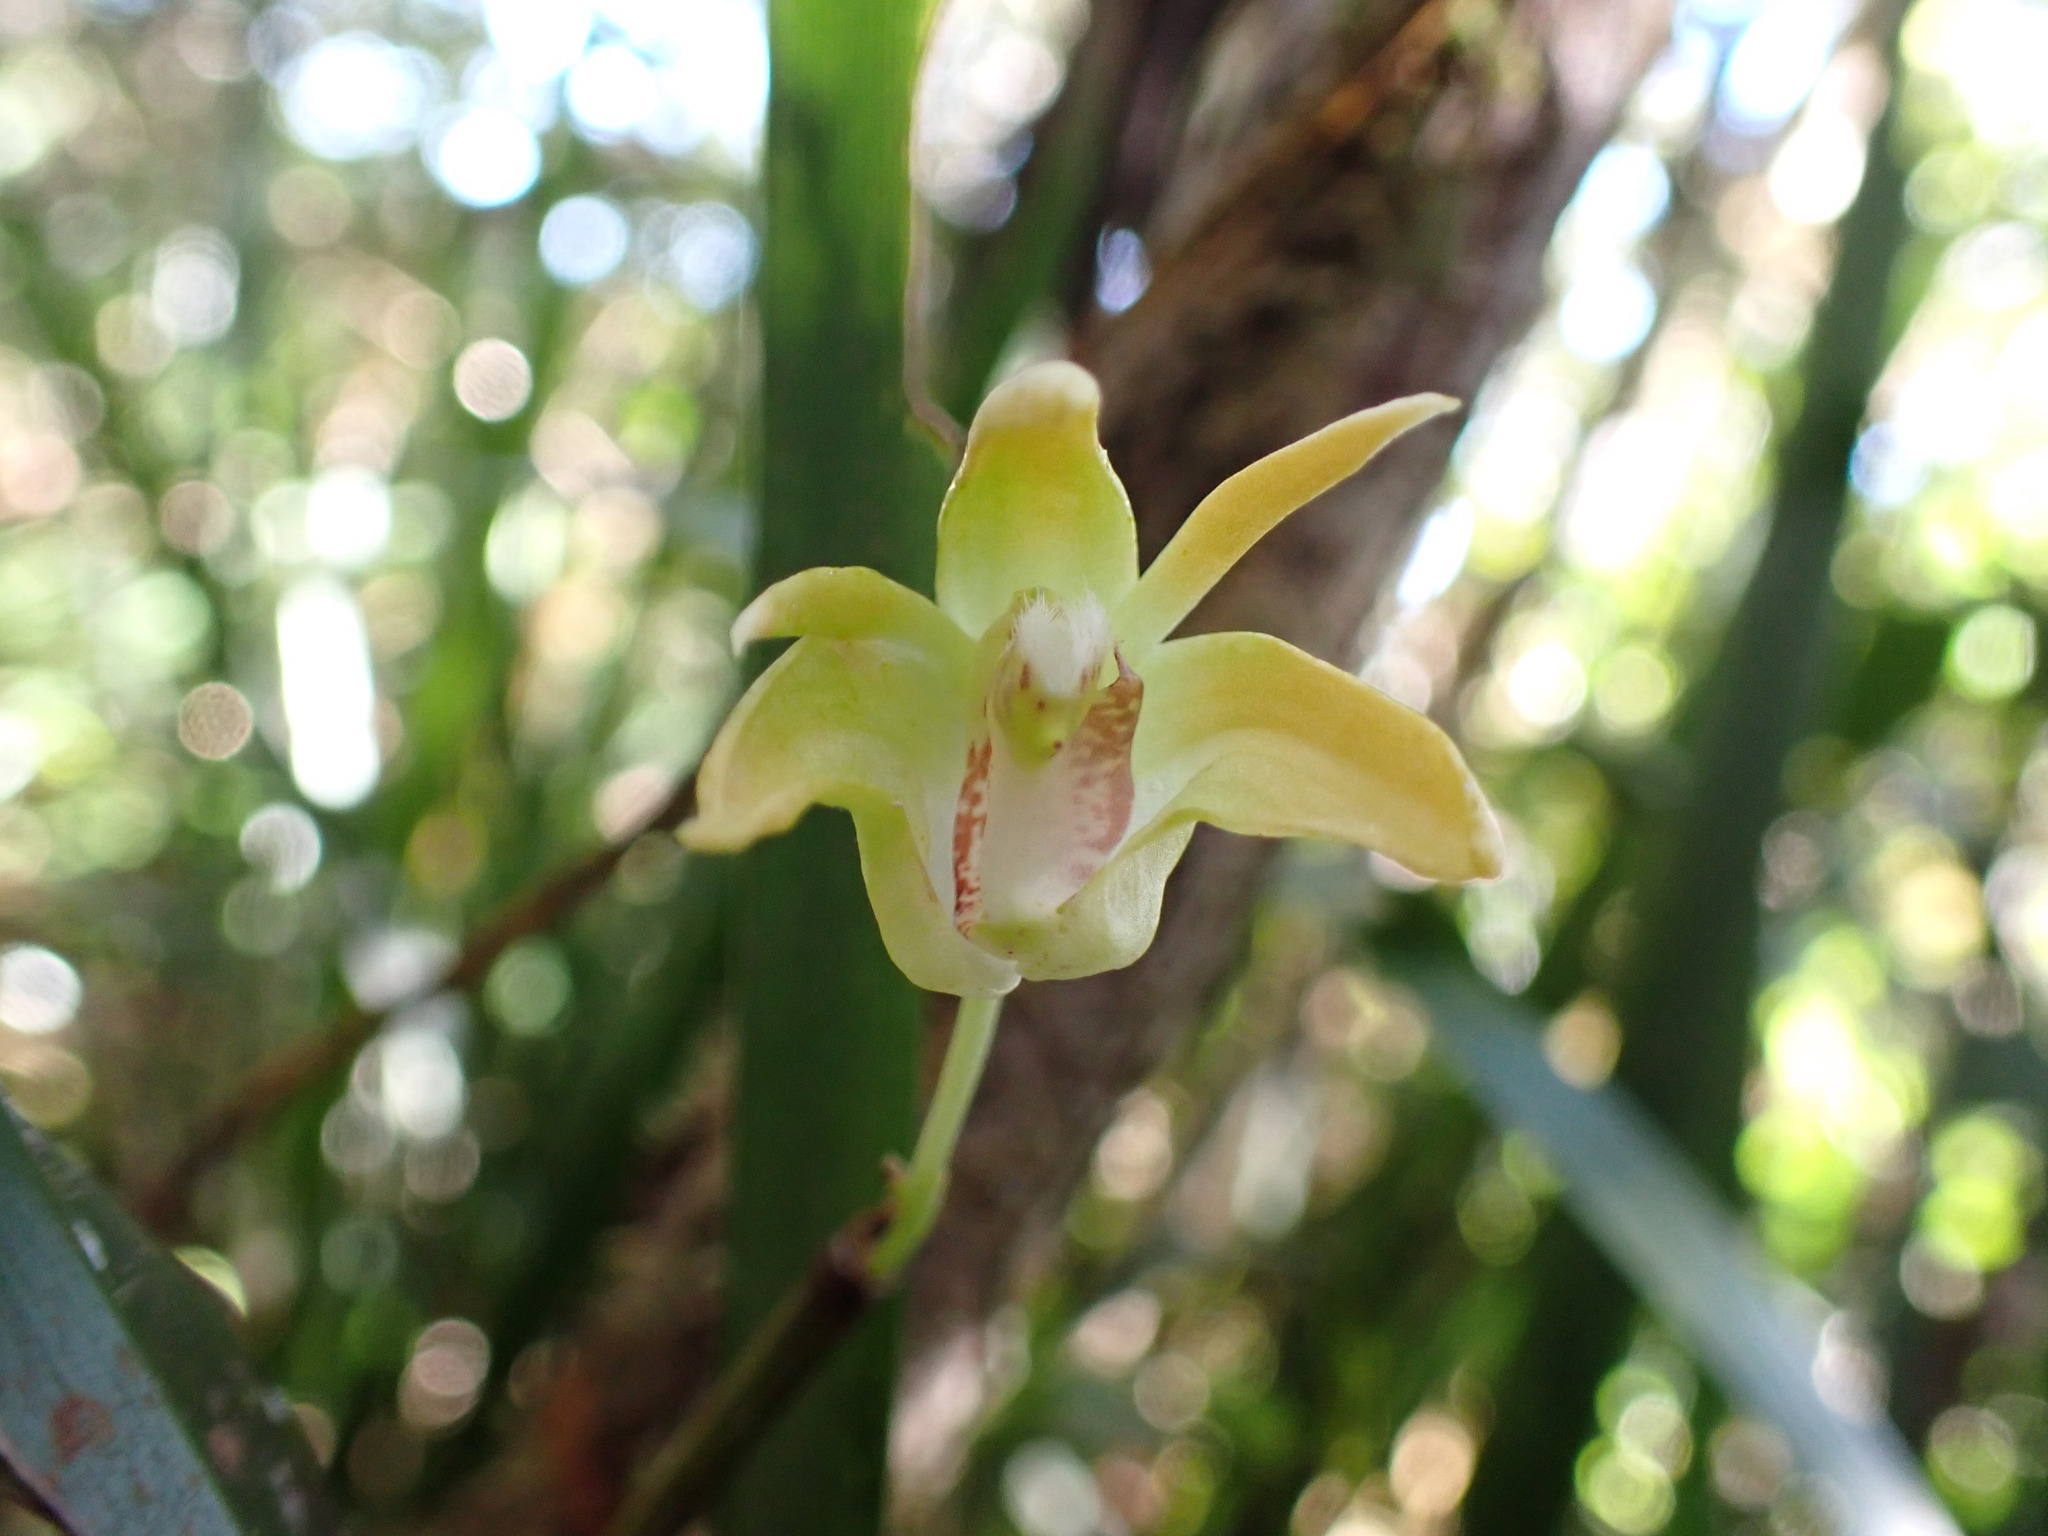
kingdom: Plantae
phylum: Tracheophyta
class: Liliopsida
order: Asparagales
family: Orchidaceae
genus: Dendrobium
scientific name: Dendrobium fleckeri
